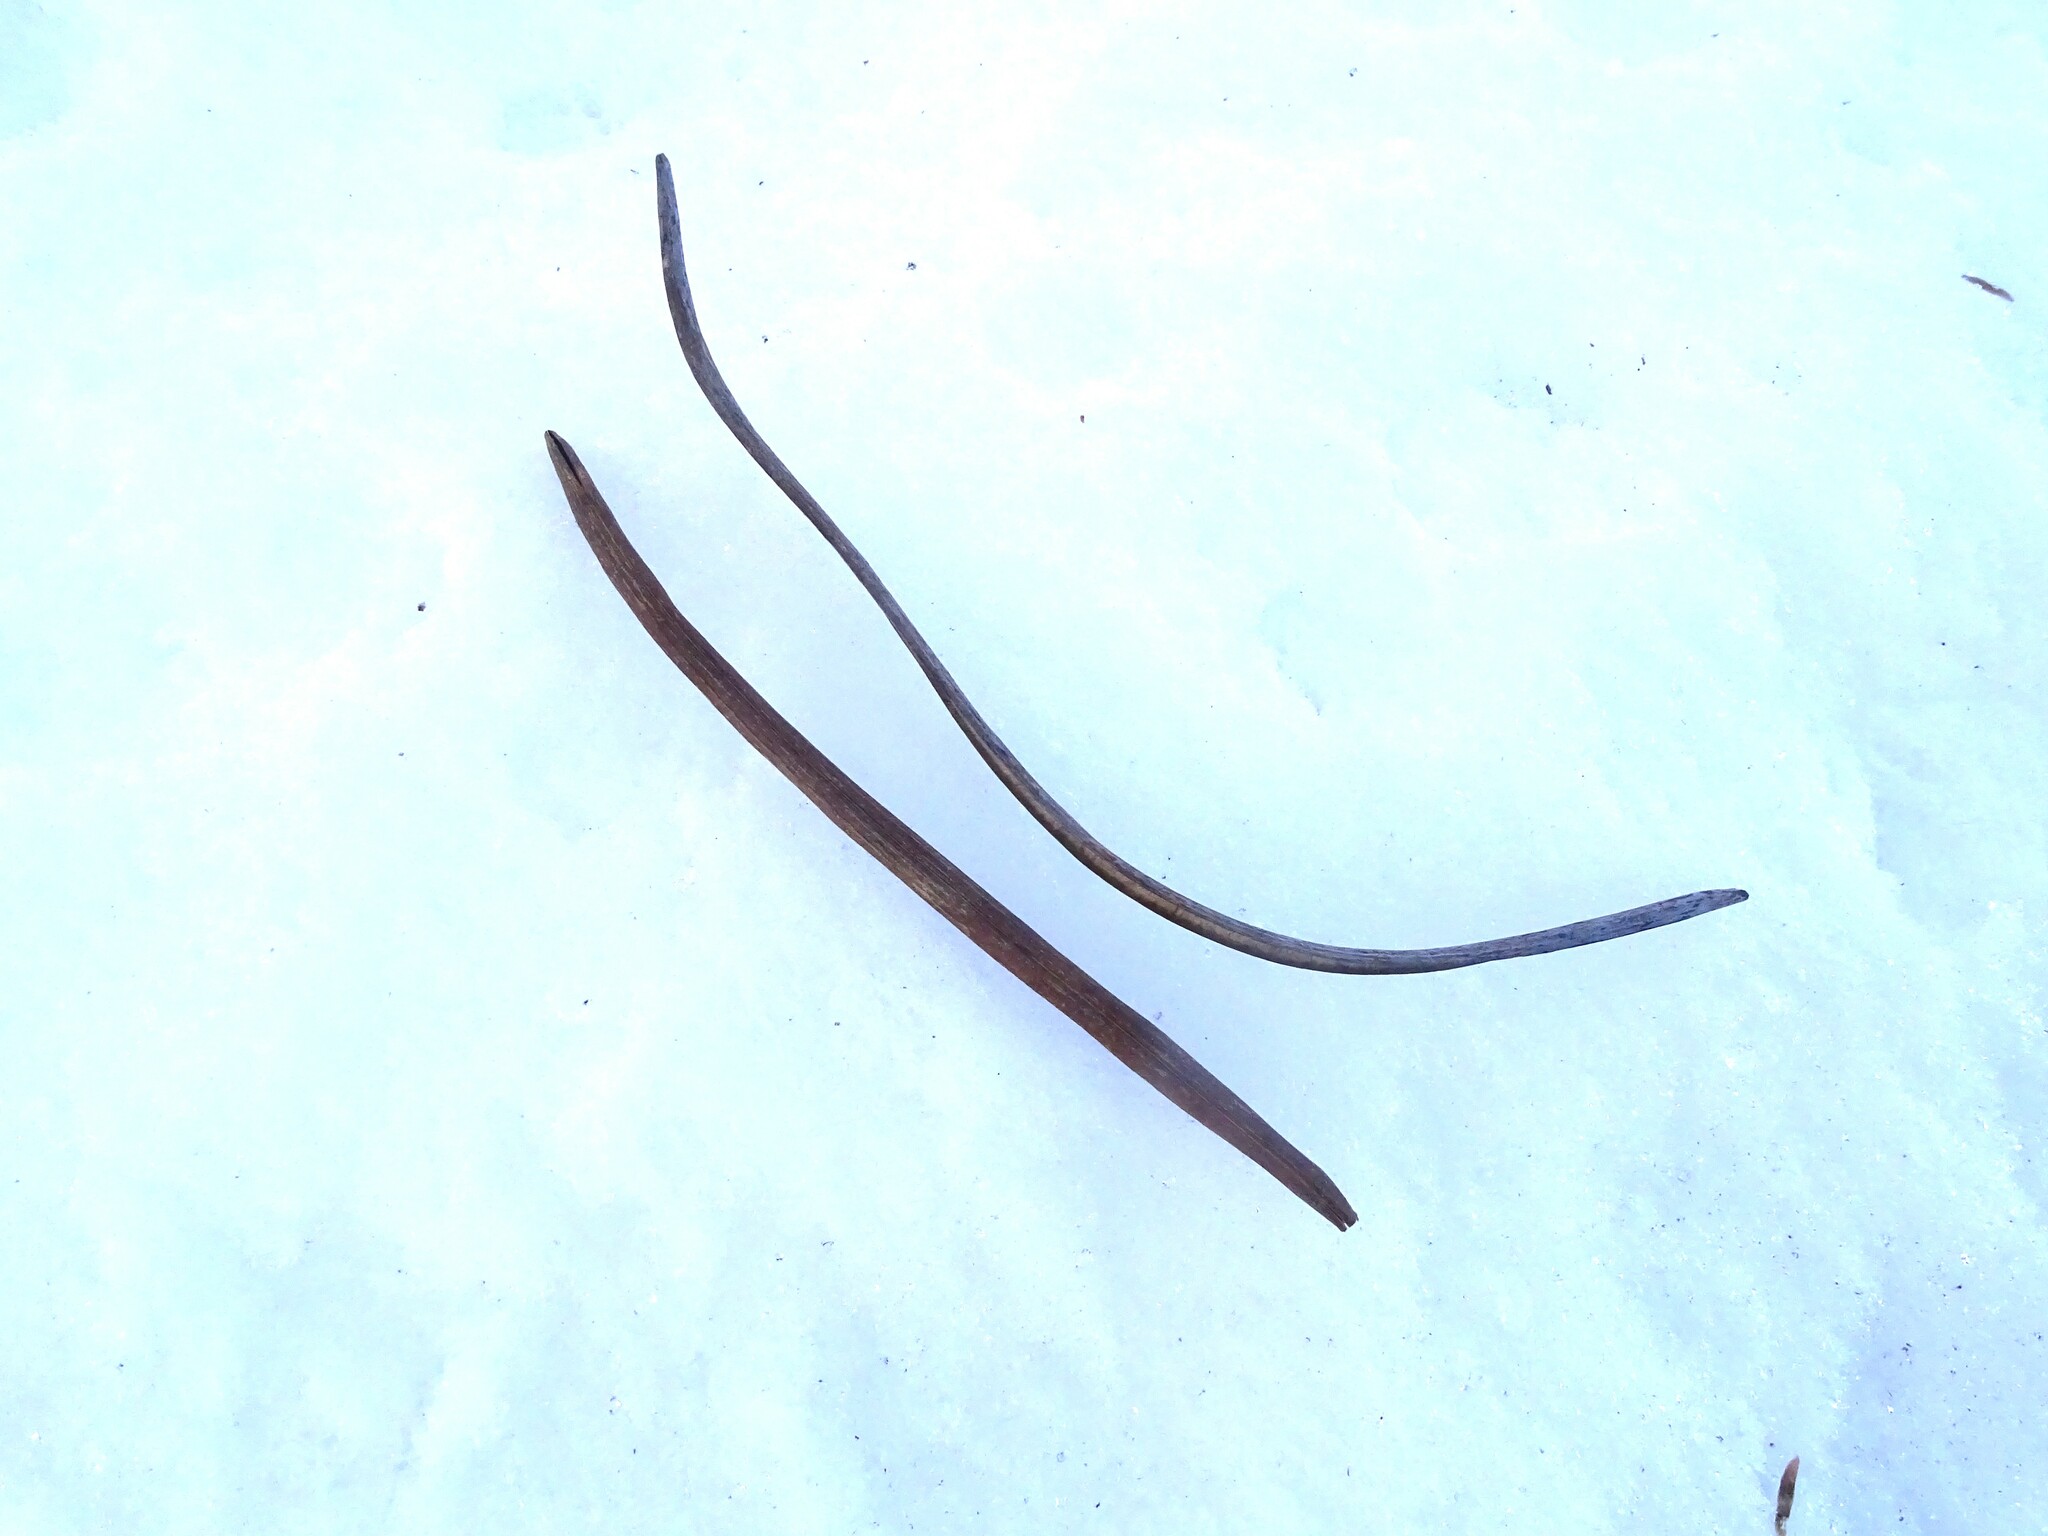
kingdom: Plantae
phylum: Tracheophyta
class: Magnoliopsida
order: Lamiales
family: Bignoniaceae
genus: Catalpa
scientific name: Catalpa speciosa
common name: Northern catalpa
